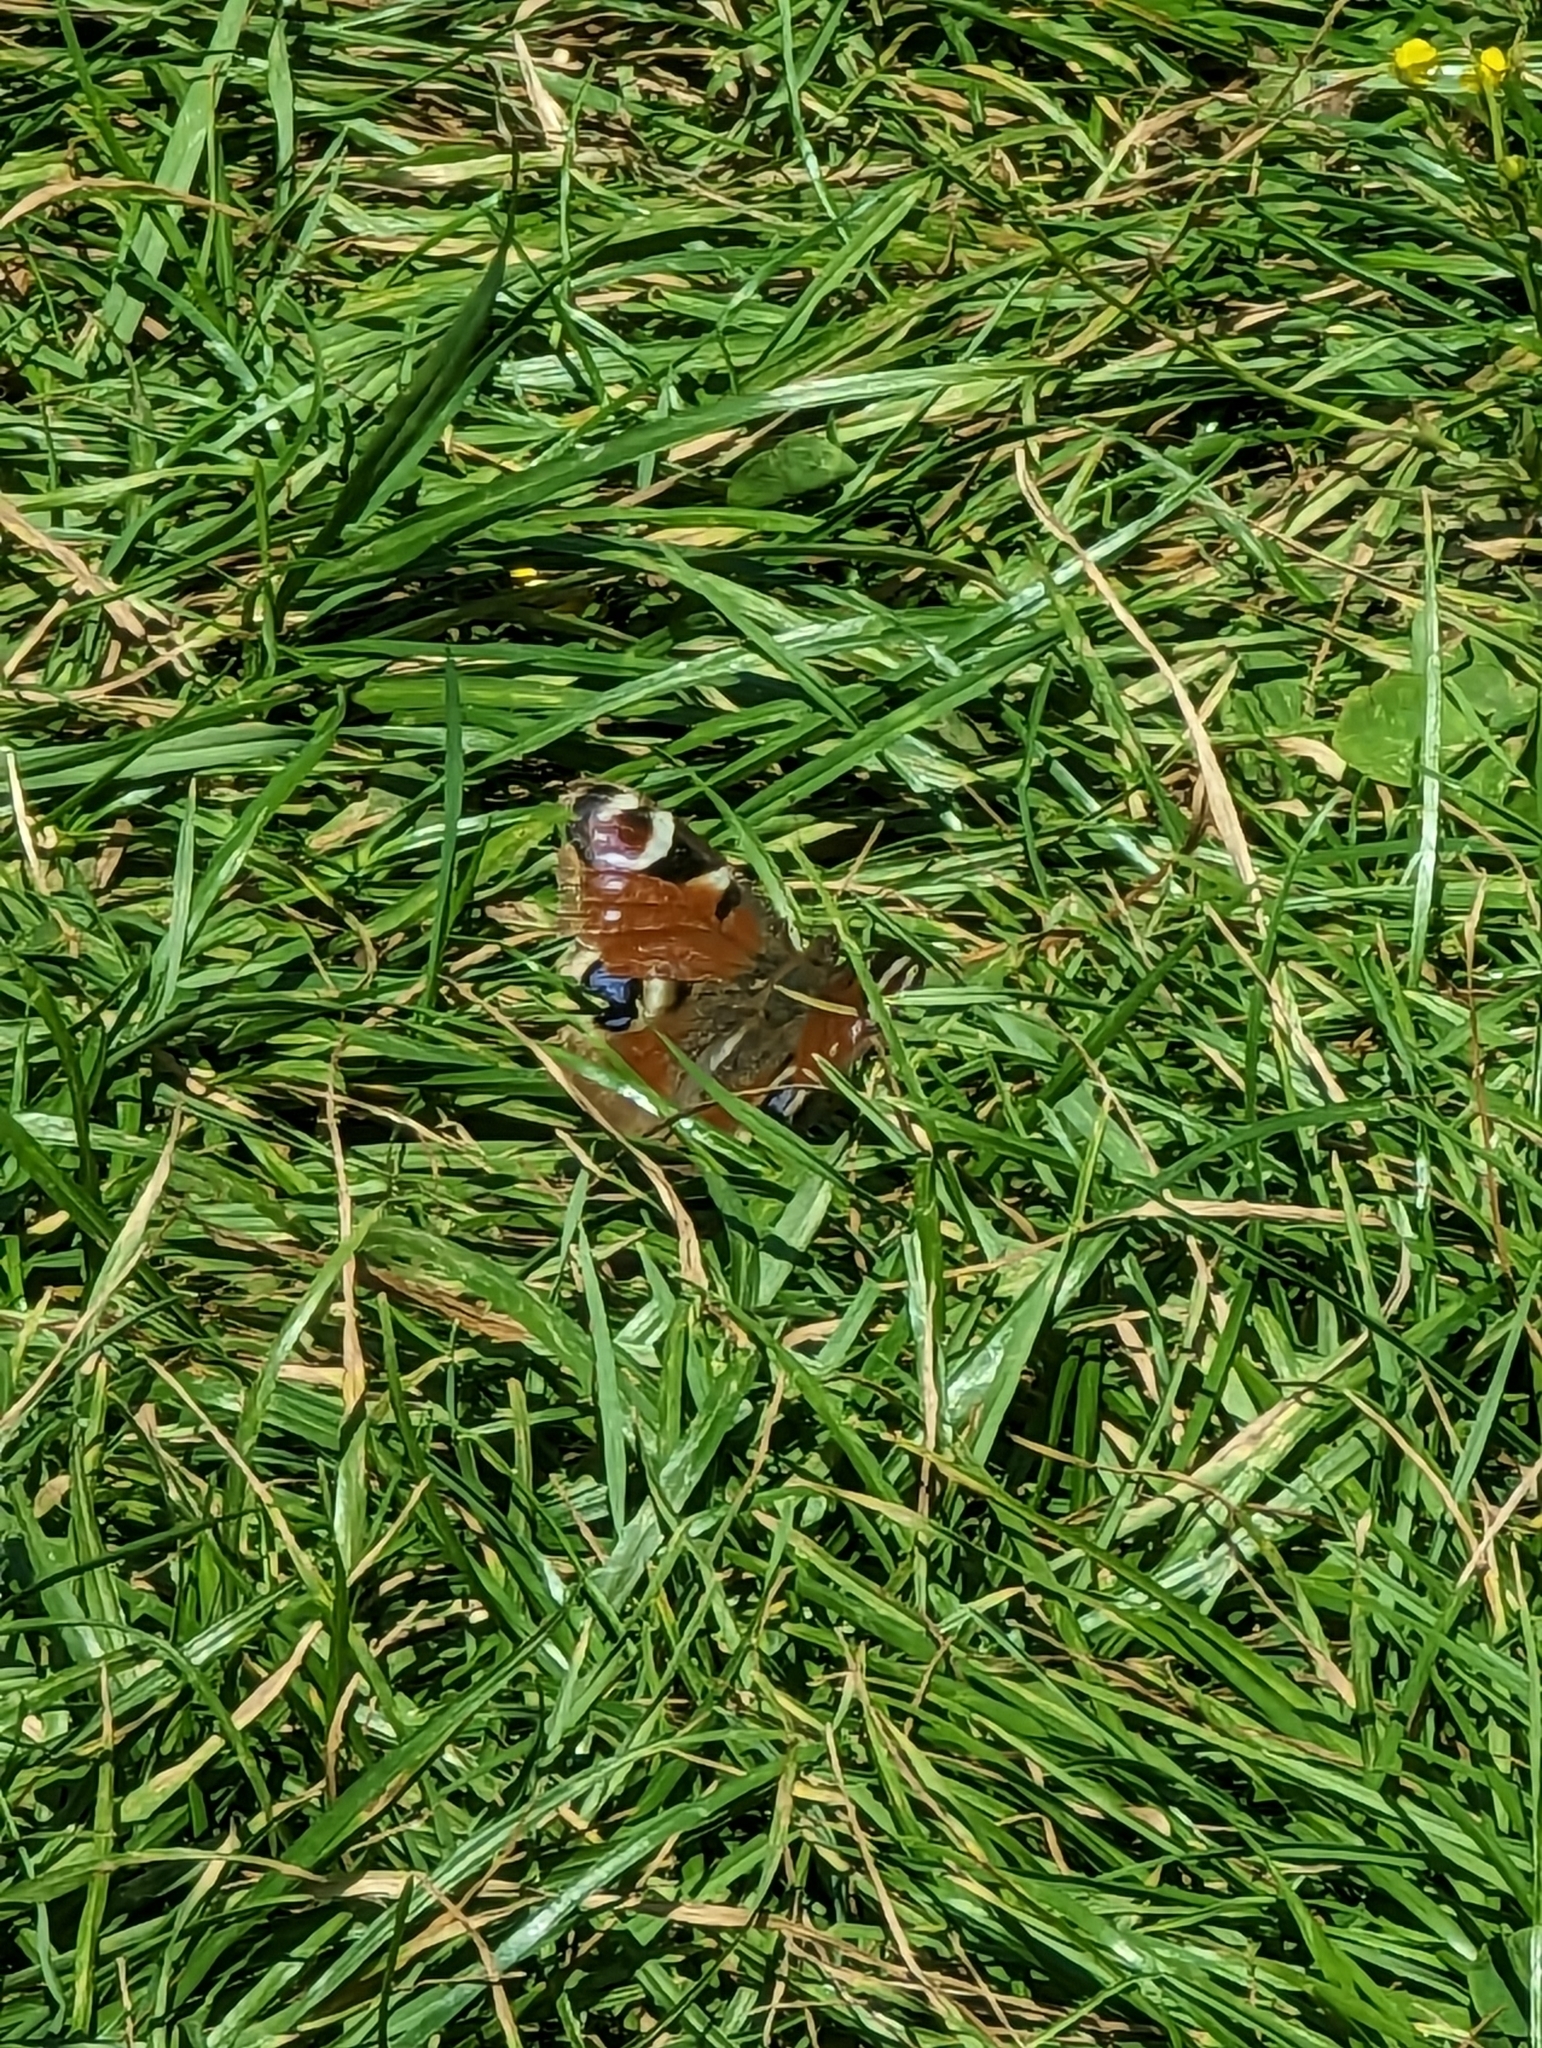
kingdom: Animalia
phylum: Arthropoda
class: Insecta
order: Lepidoptera
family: Nymphalidae
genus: Aglais
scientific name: Aglais io
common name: Peacock
